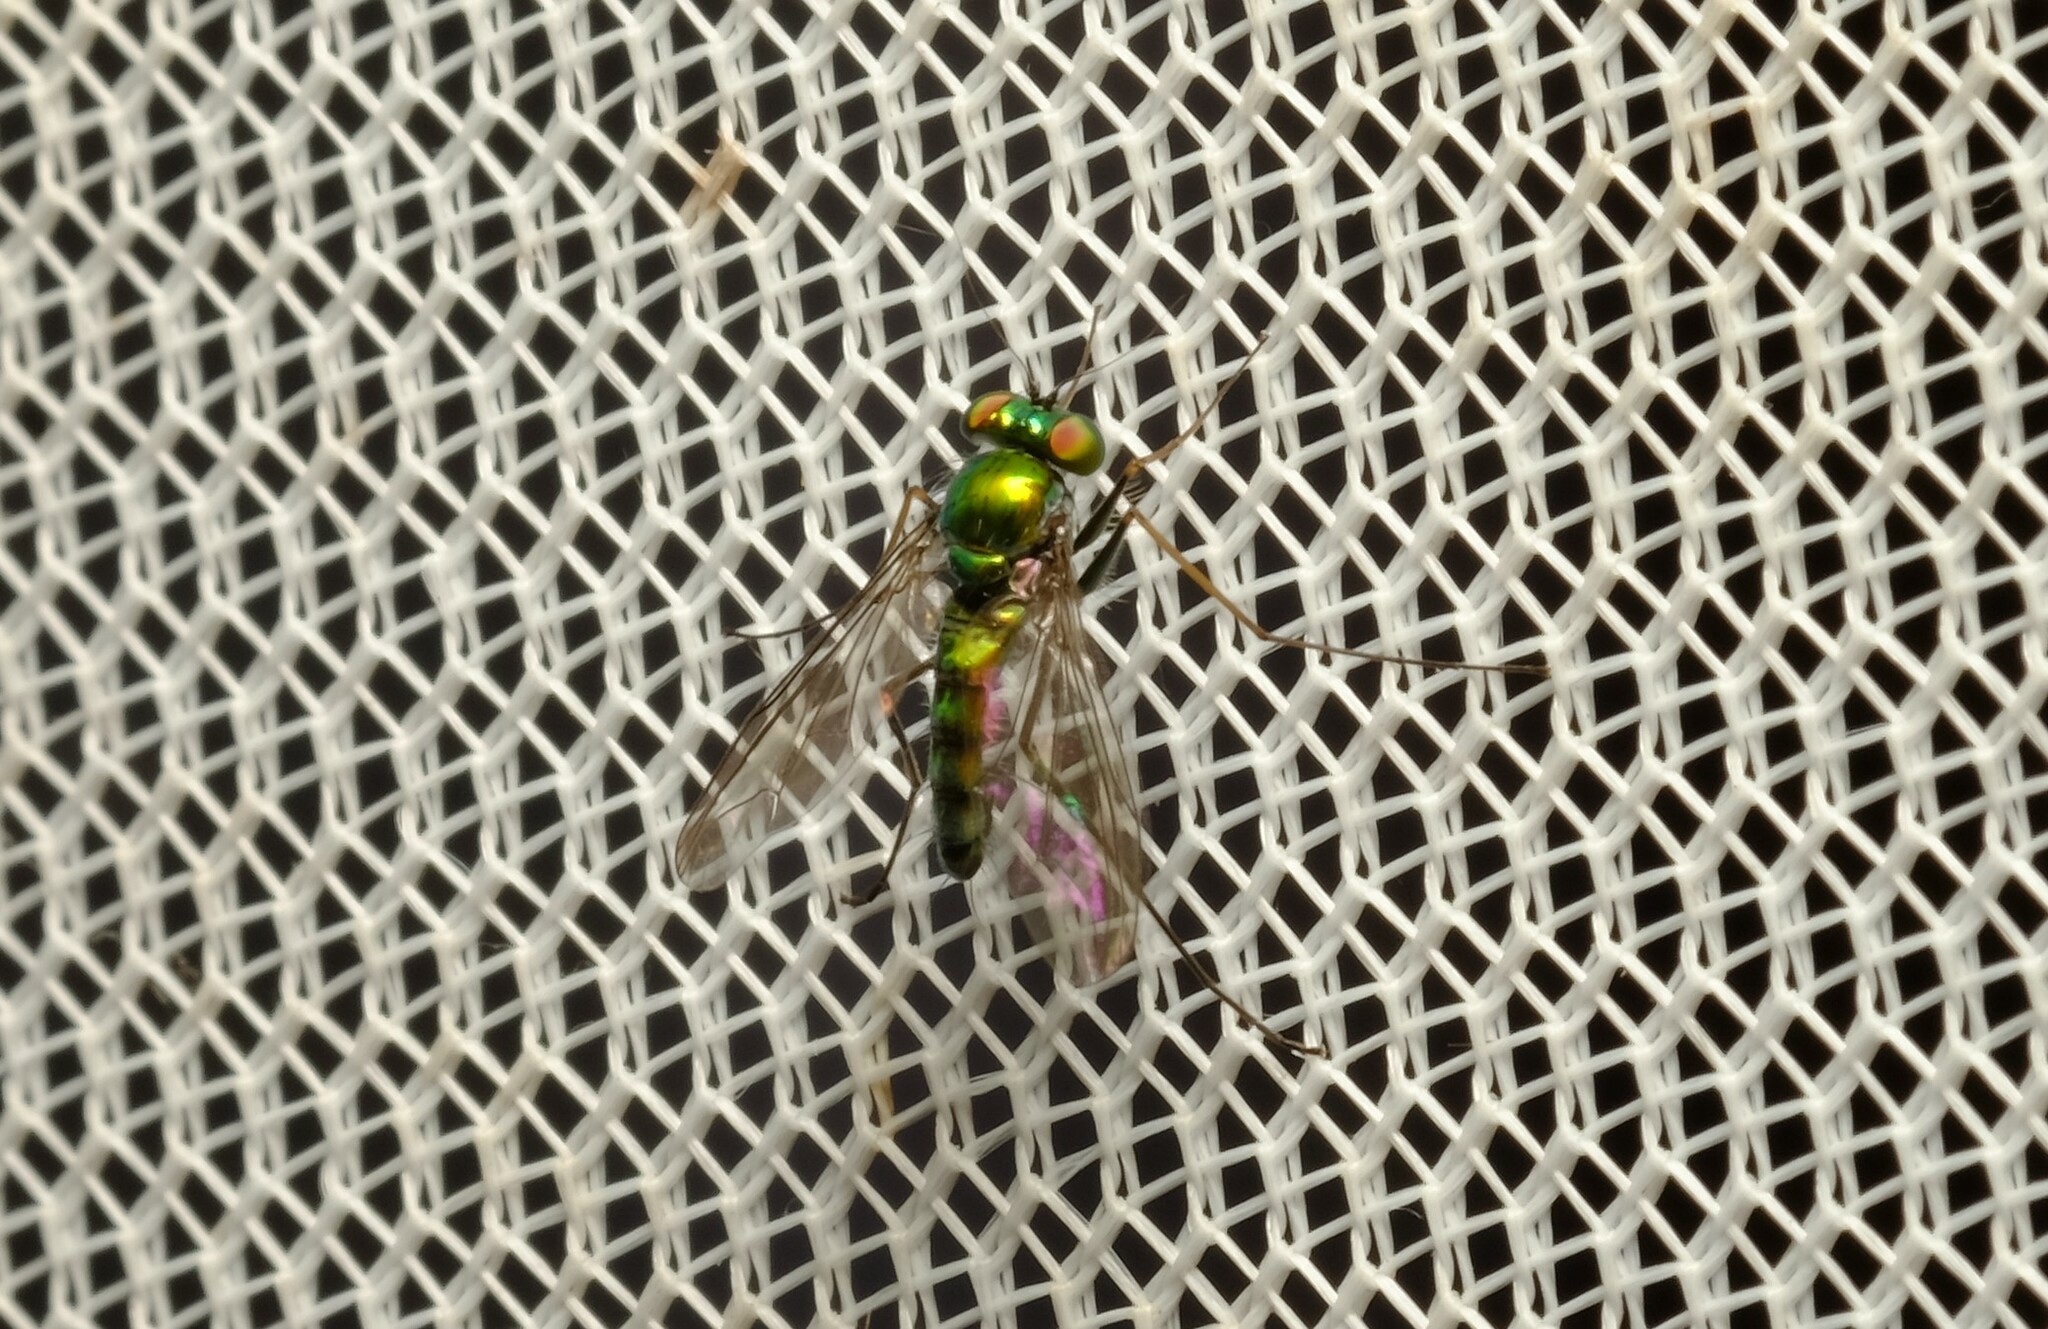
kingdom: Animalia
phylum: Arthropoda
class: Insecta
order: Diptera
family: Dolichopodidae
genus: Parentia
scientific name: Parentia dispar
